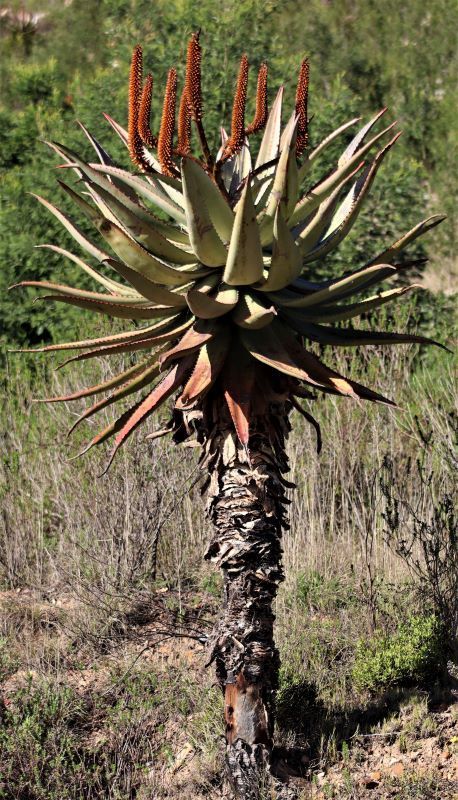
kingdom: Plantae
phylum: Tracheophyta
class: Liliopsida
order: Asparagales
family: Asphodelaceae
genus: Aloe
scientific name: Aloe ferox
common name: Bitter aloe
